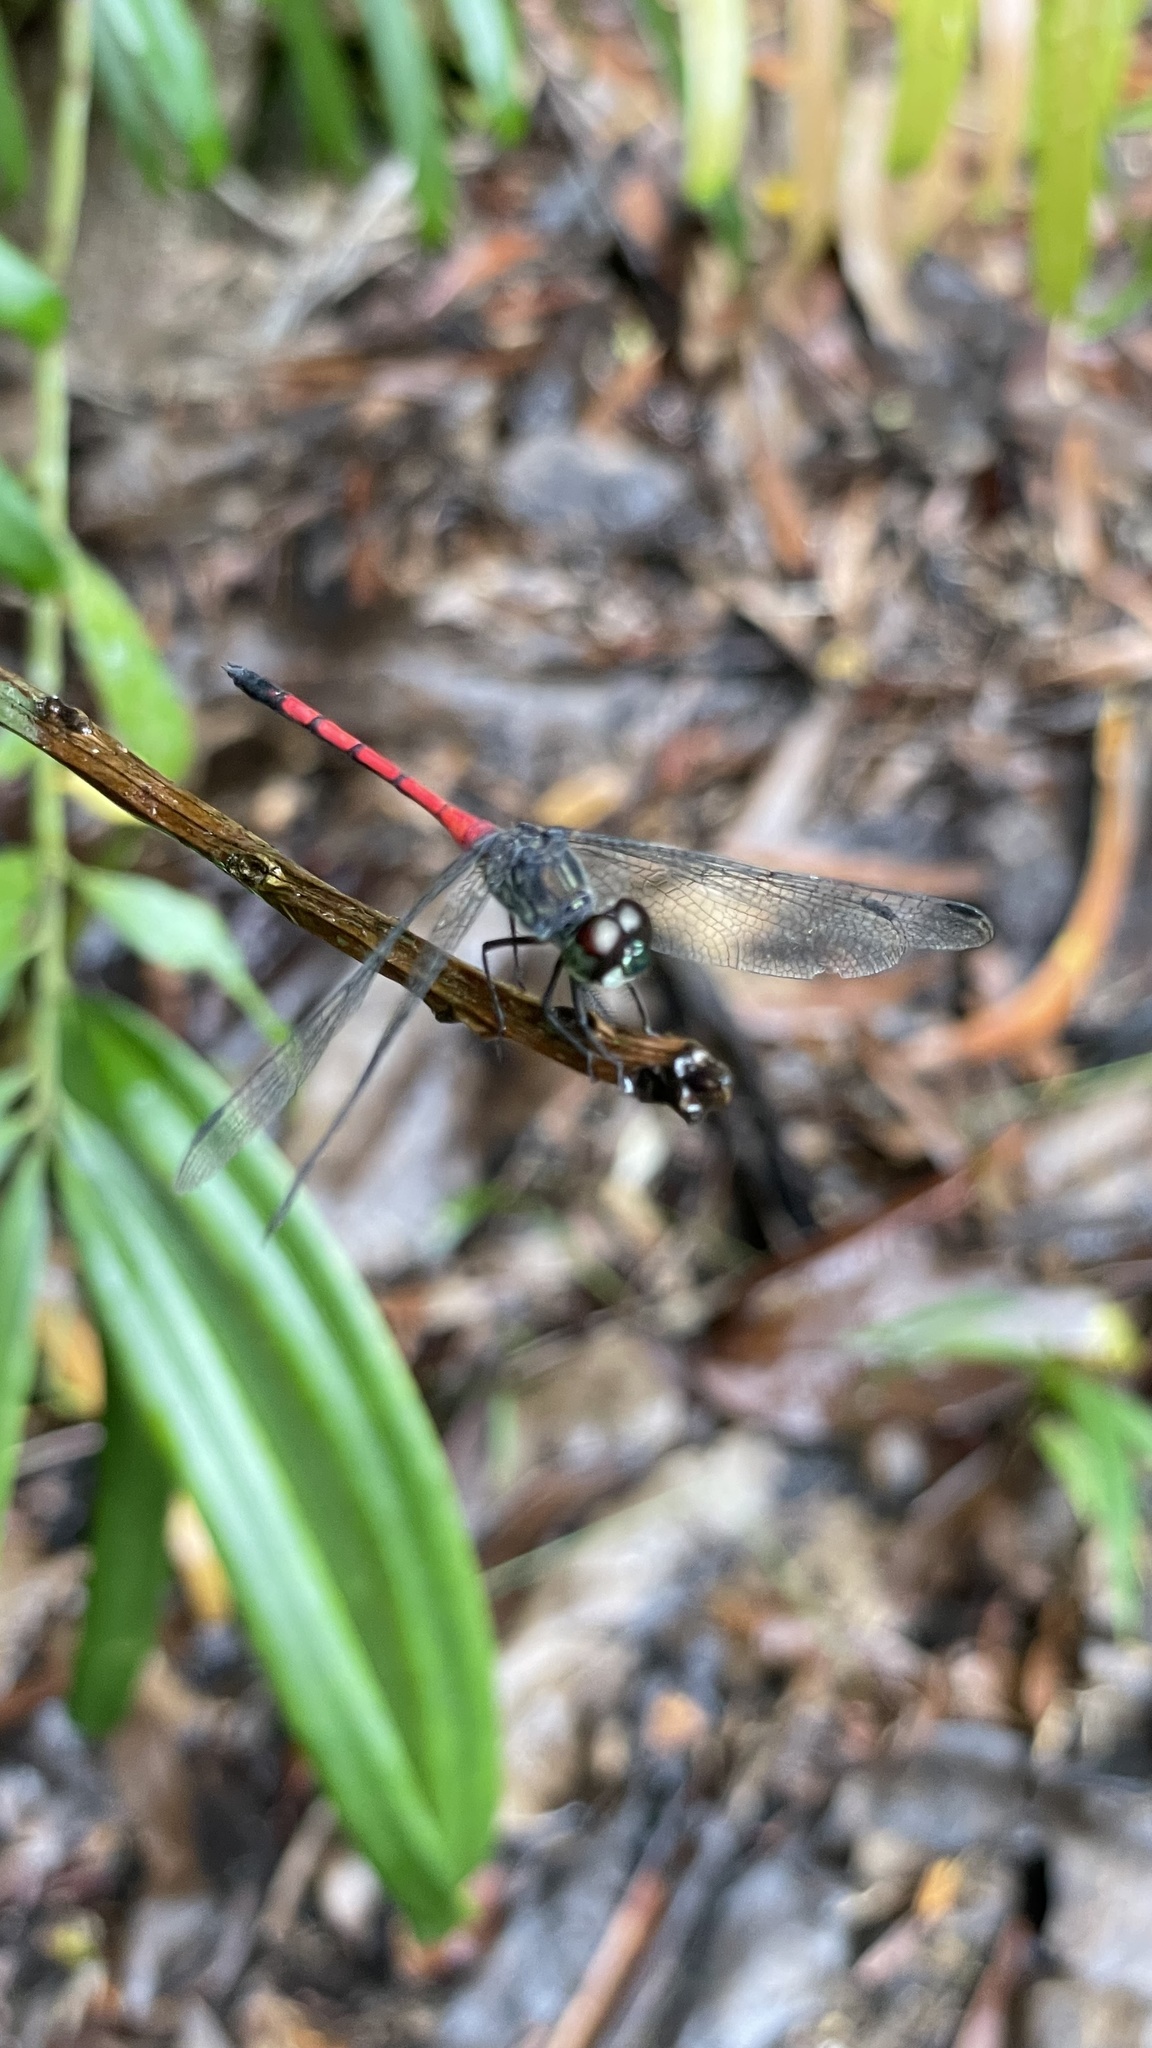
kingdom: Animalia
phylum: Arthropoda
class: Insecta
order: Odonata
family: Libellulidae
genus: Agrionoptera
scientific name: Agrionoptera insignis
